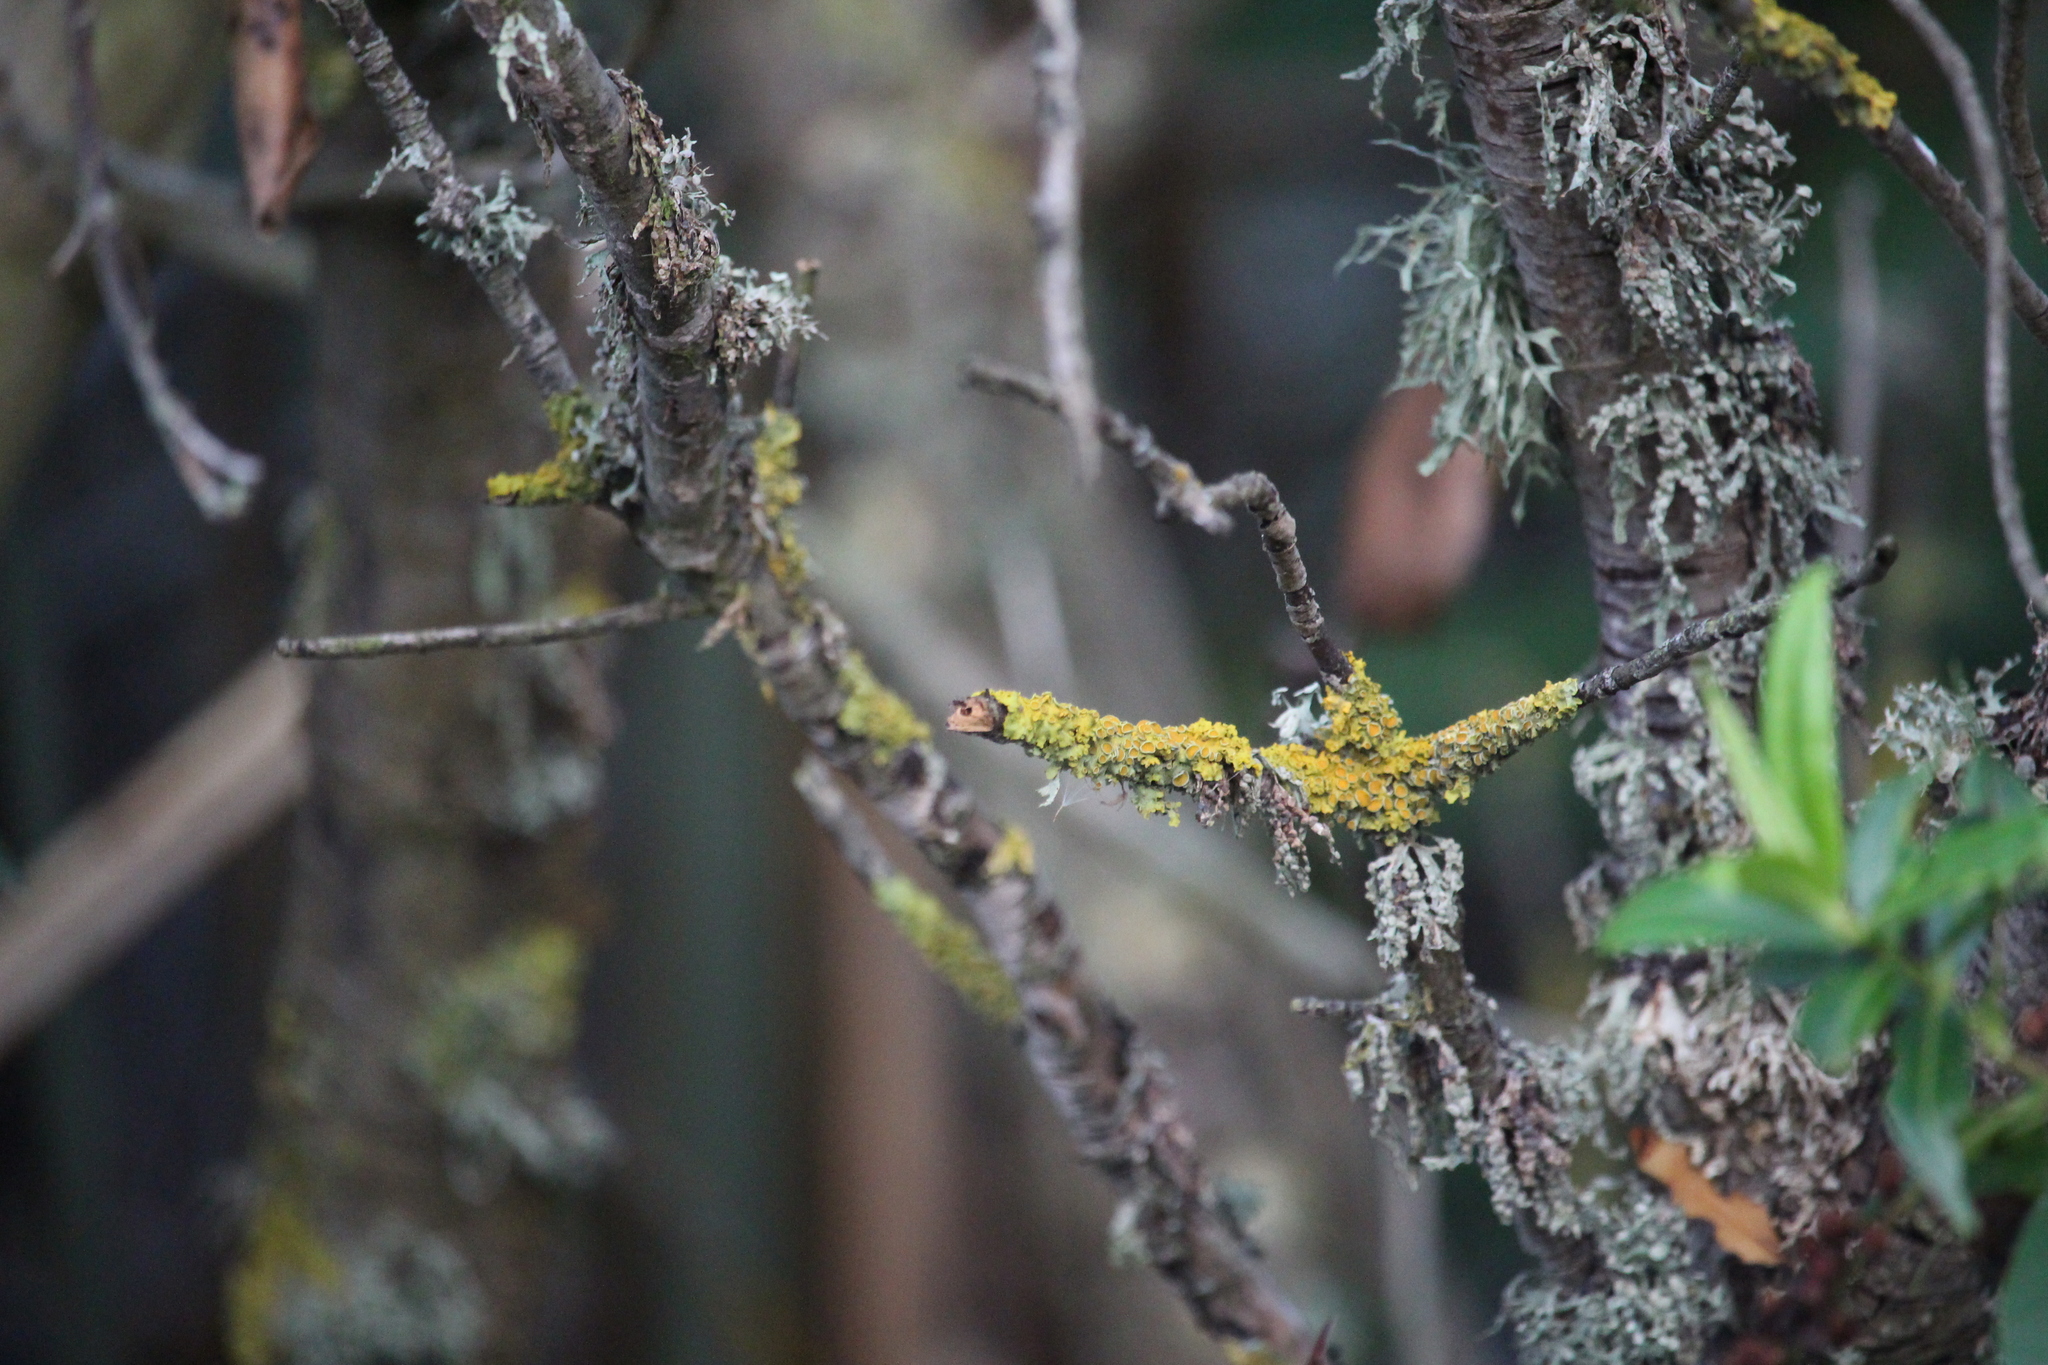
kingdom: Fungi
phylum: Ascomycota
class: Lecanoromycetes
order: Teloschistales
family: Teloschistaceae
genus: Xanthoria
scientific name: Xanthoria parietina
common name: Common orange lichen
